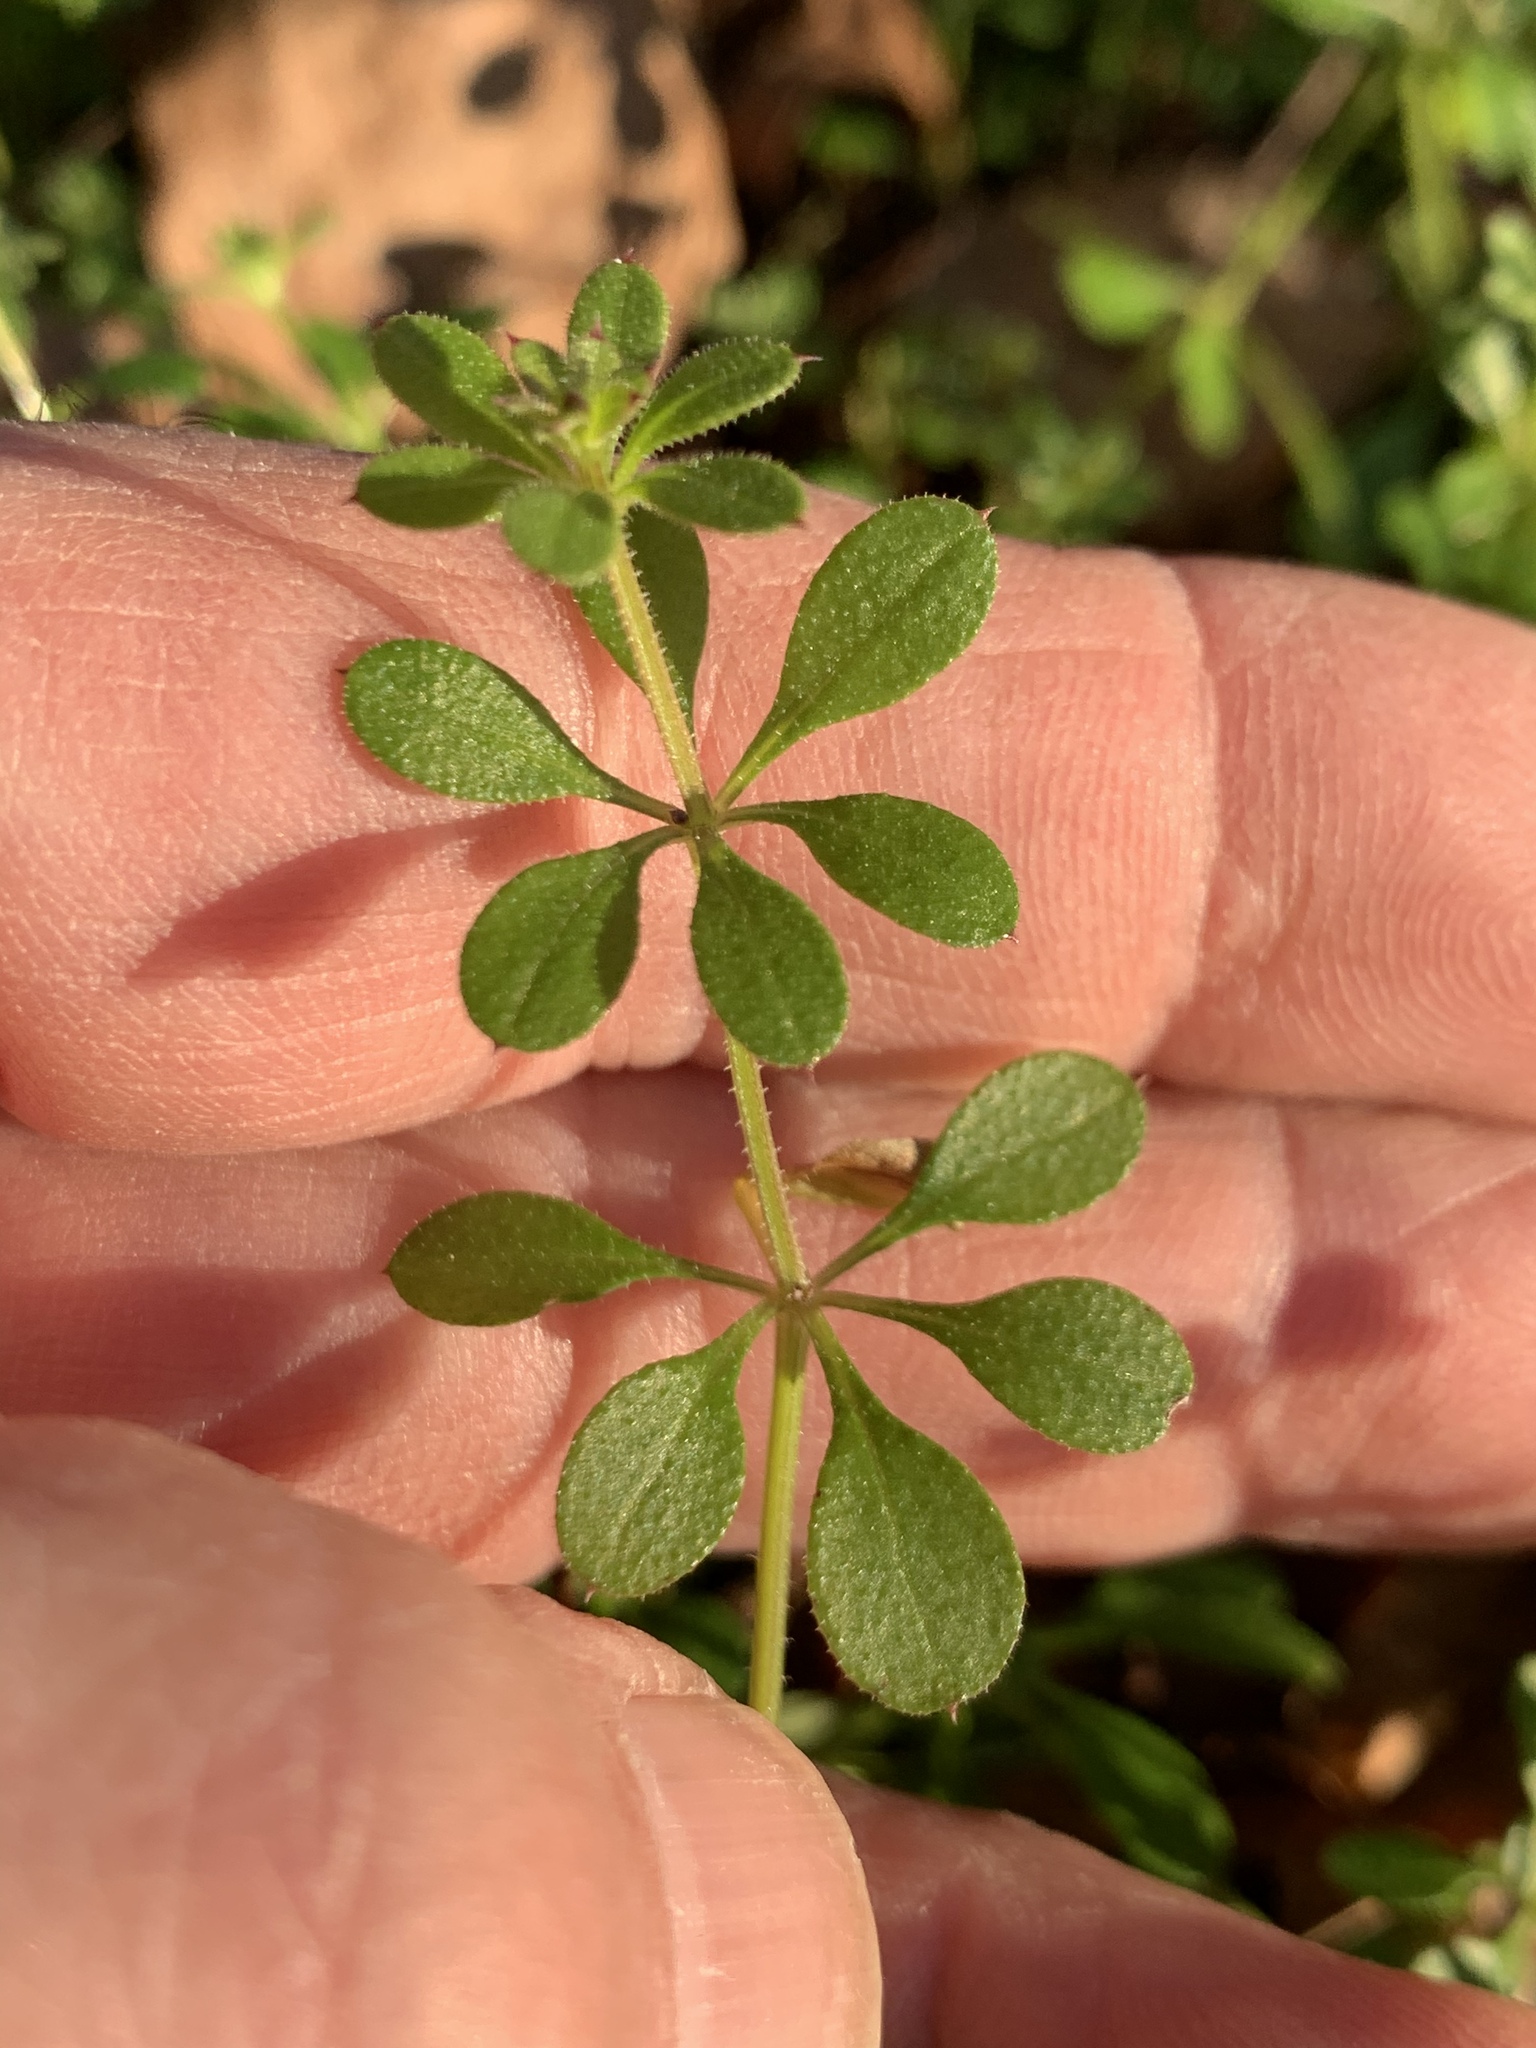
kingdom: Plantae
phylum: Tracheophyta
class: Magnoliopsida
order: Gentianales
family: Rubiaceae
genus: Galium
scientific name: Galium aparine
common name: Cleavers
